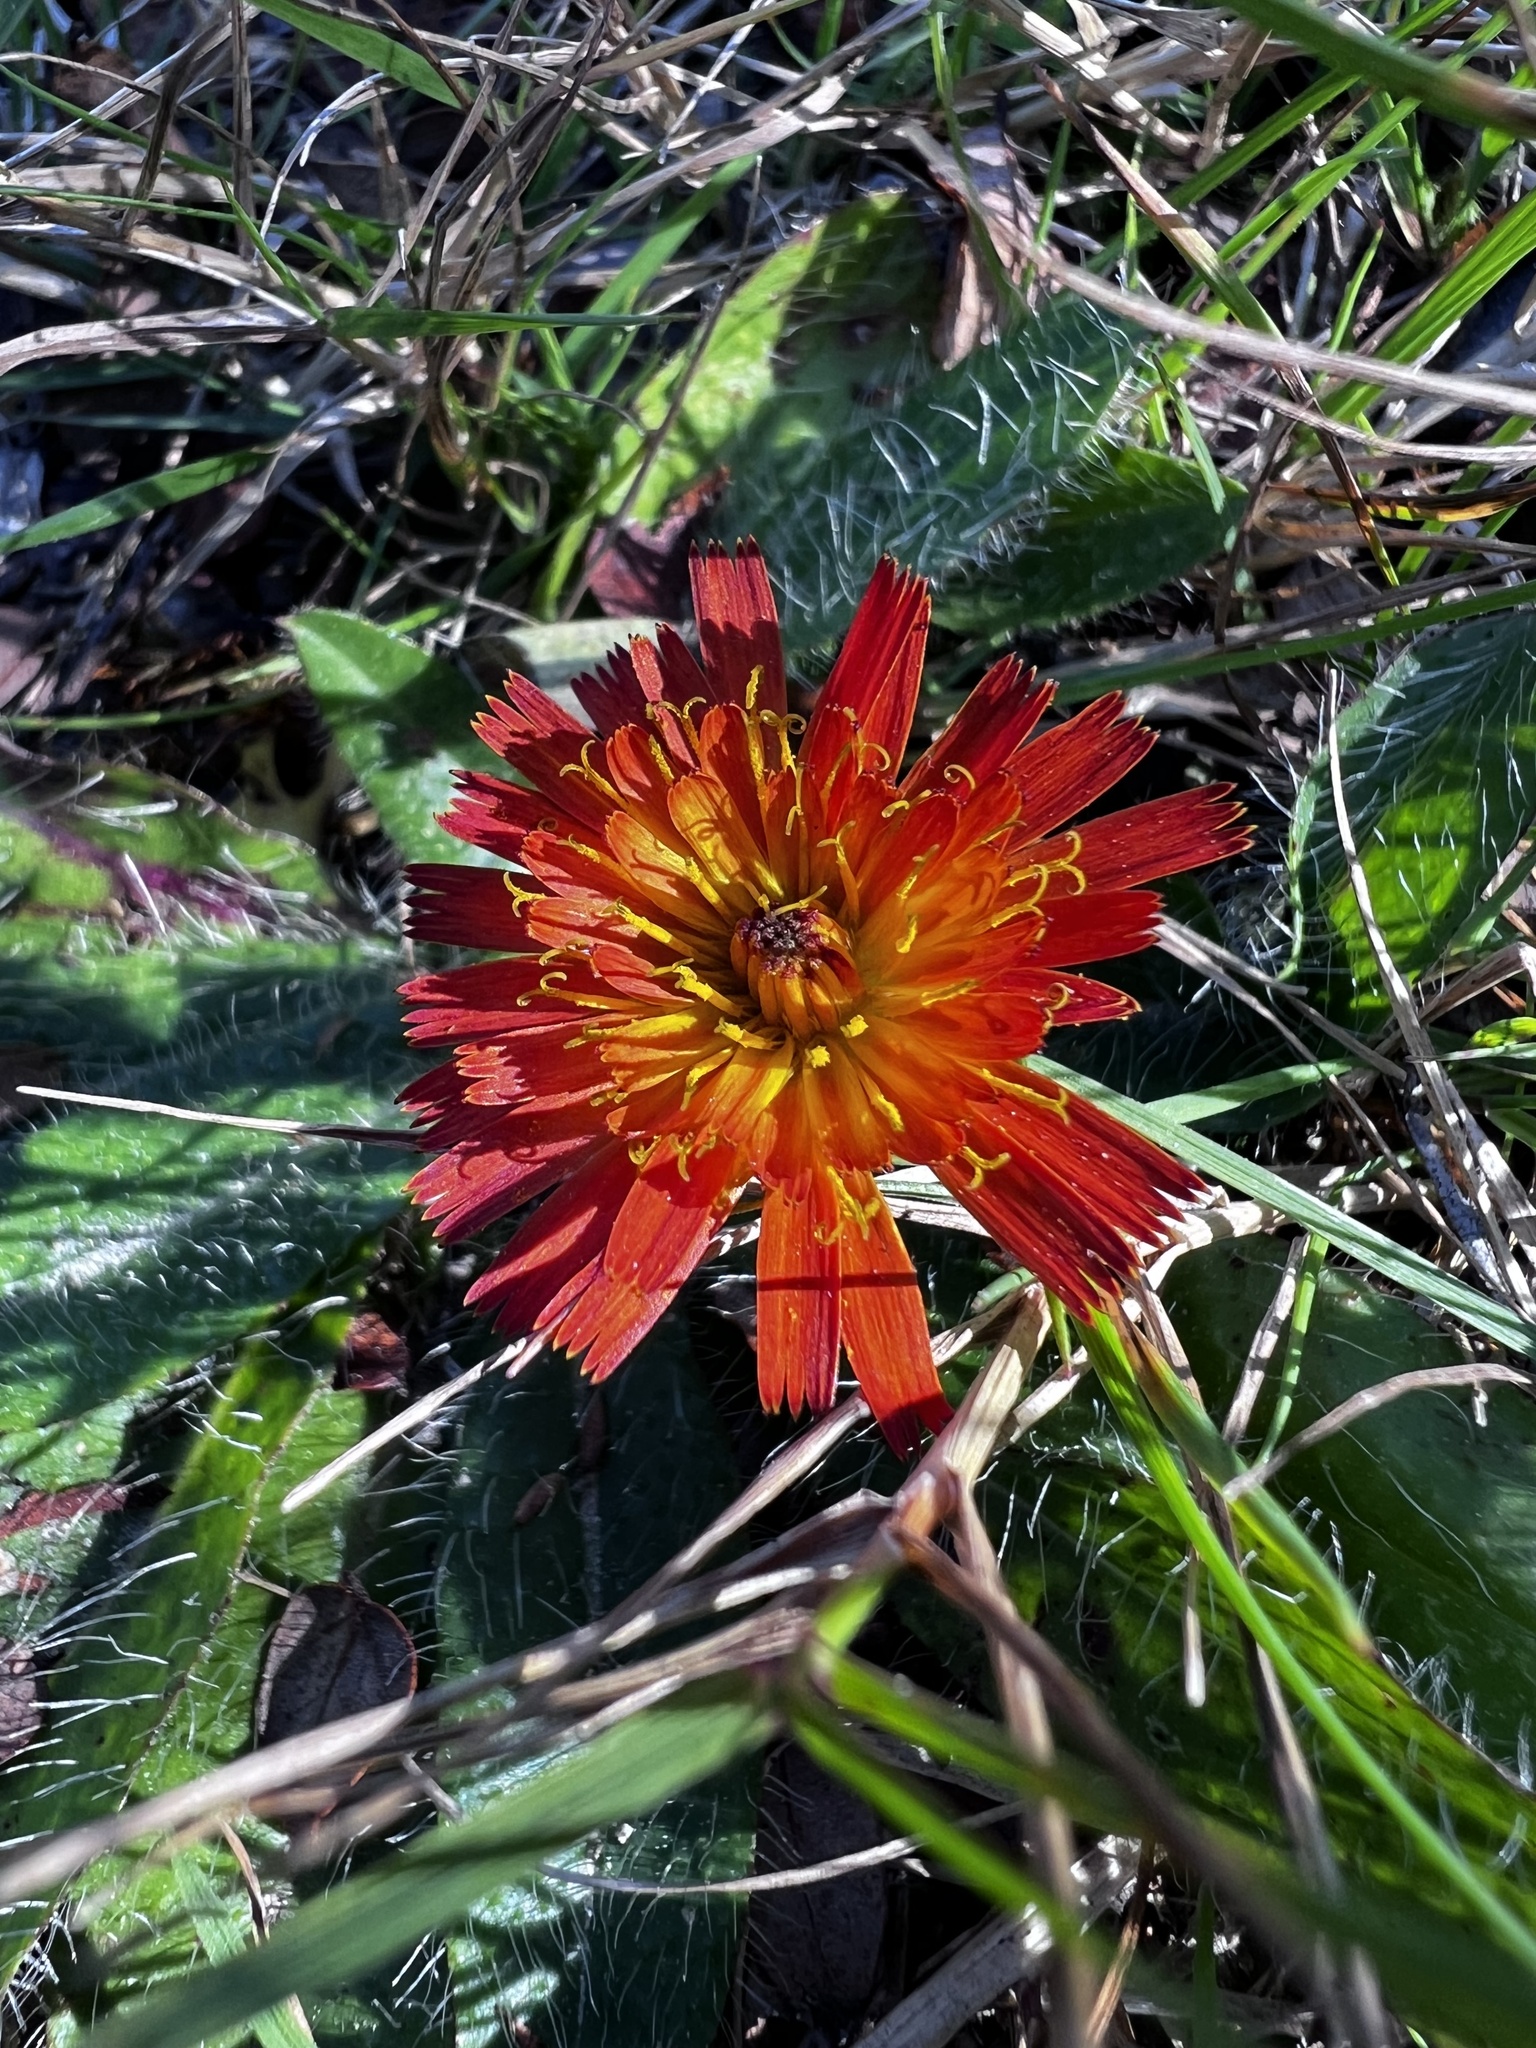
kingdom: Plantae
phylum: Tracheophyta
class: Magnoliopsida
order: Asterales
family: Asteraceae
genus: Pilosella
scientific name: Pilosella aurantiaca
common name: Fox-and-cubs
